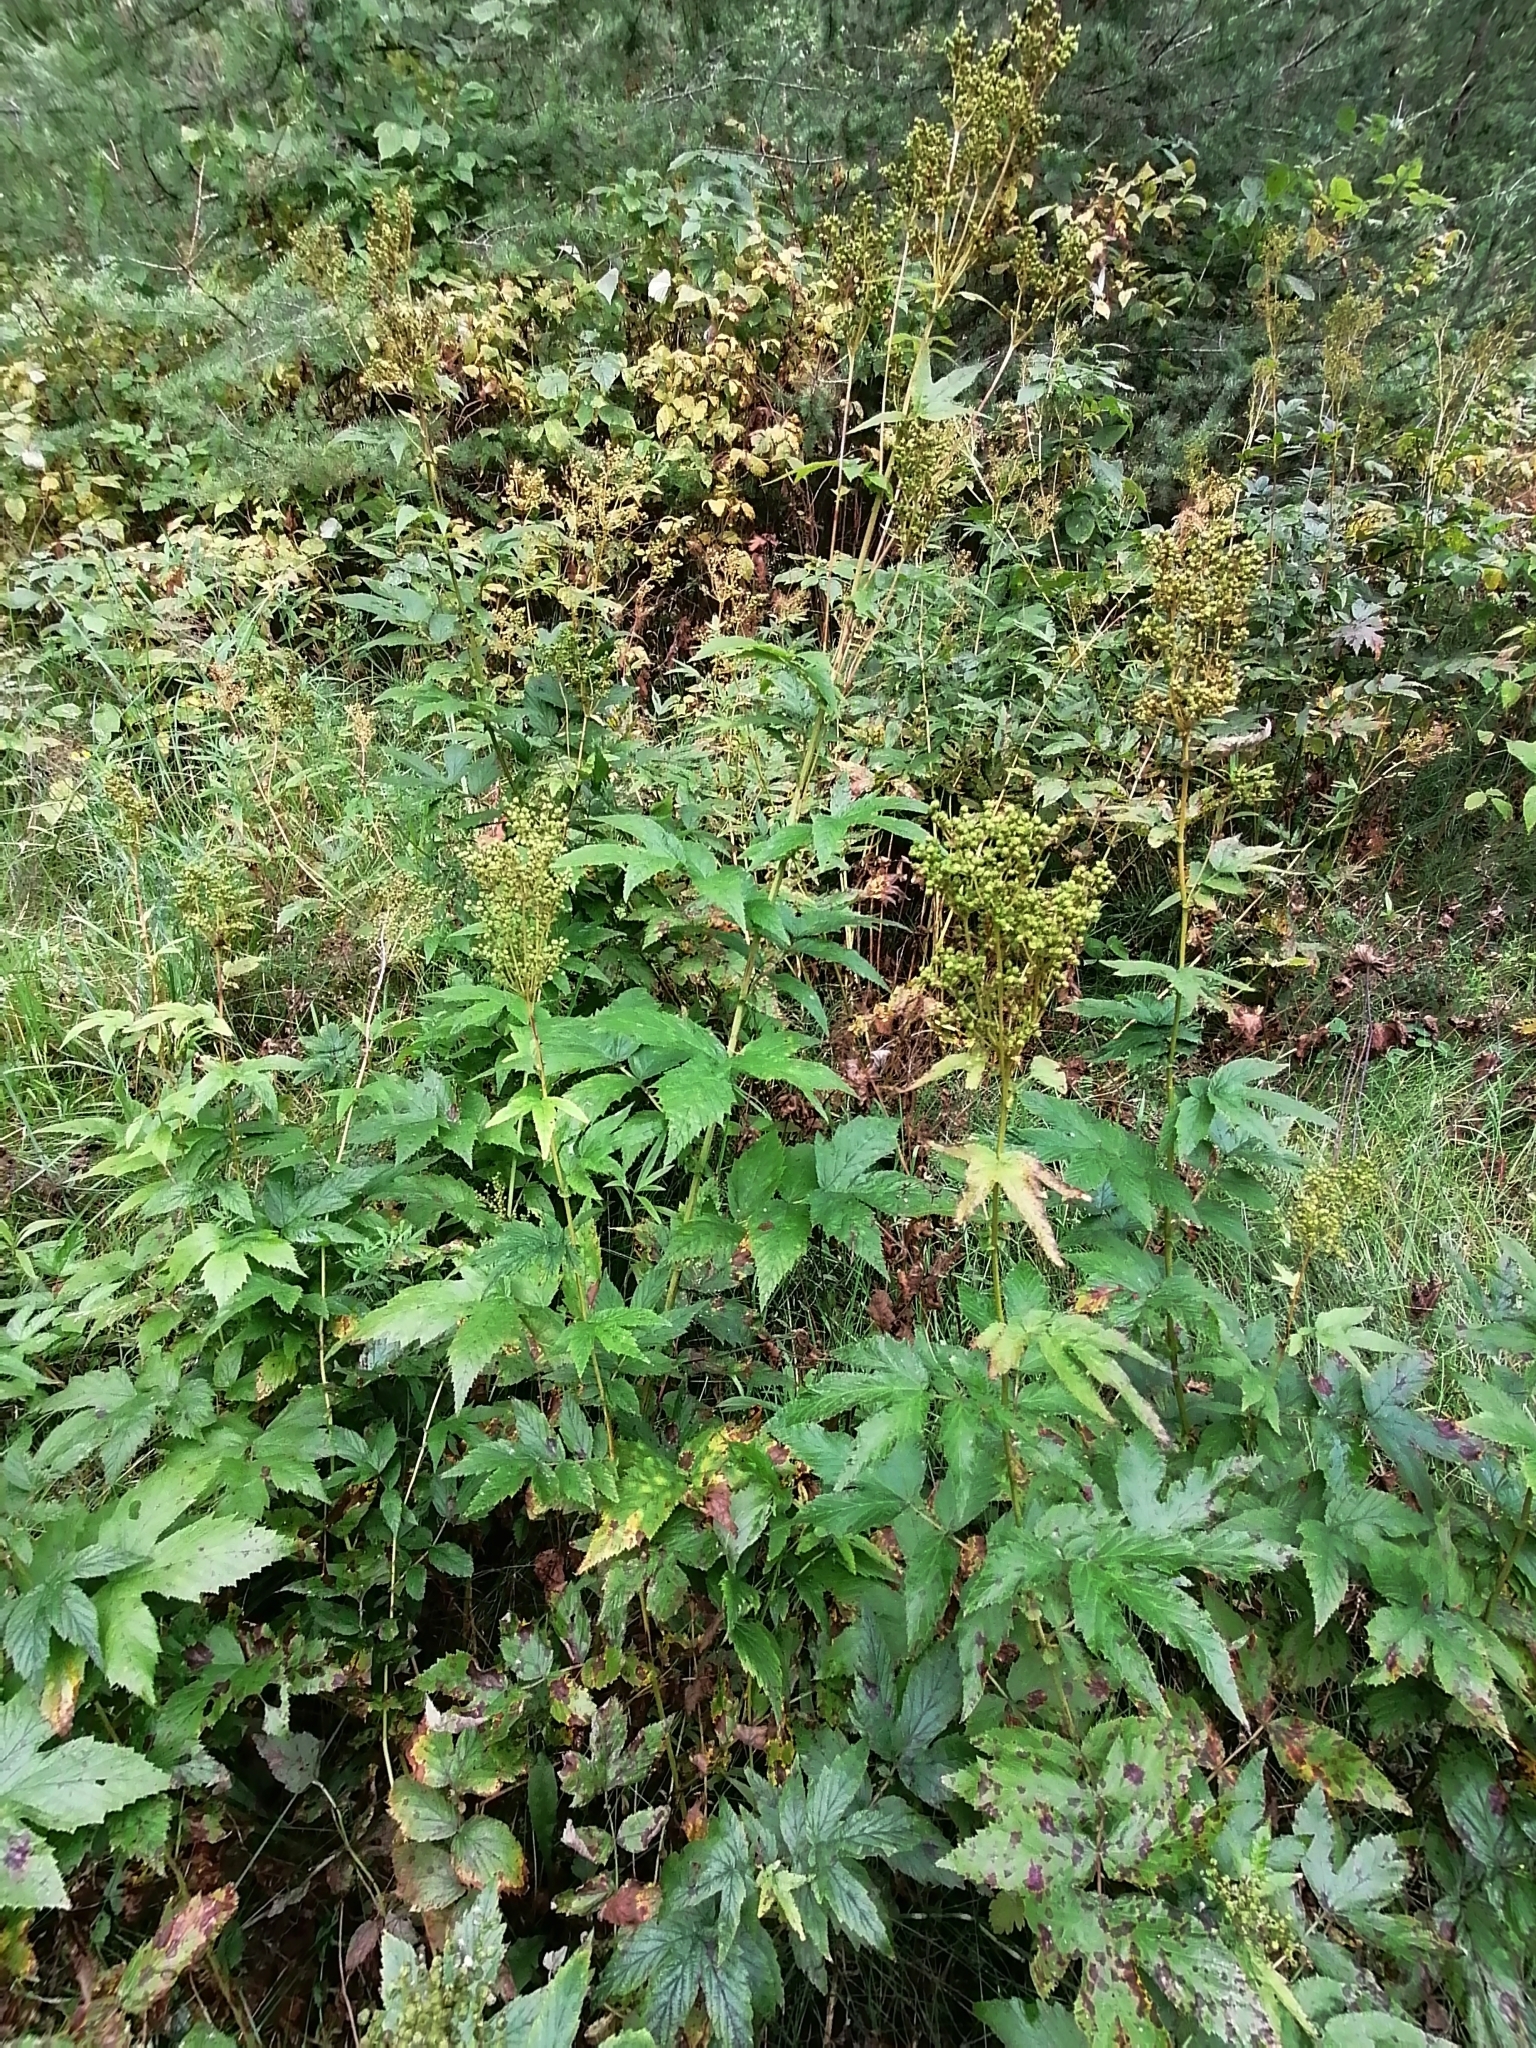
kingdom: Plantae
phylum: Tracheophyta
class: Magnoliopsida
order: Rosales
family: Rosaceae
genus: Filipendula
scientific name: Filipendula ulmaria
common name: Meadowsweet
